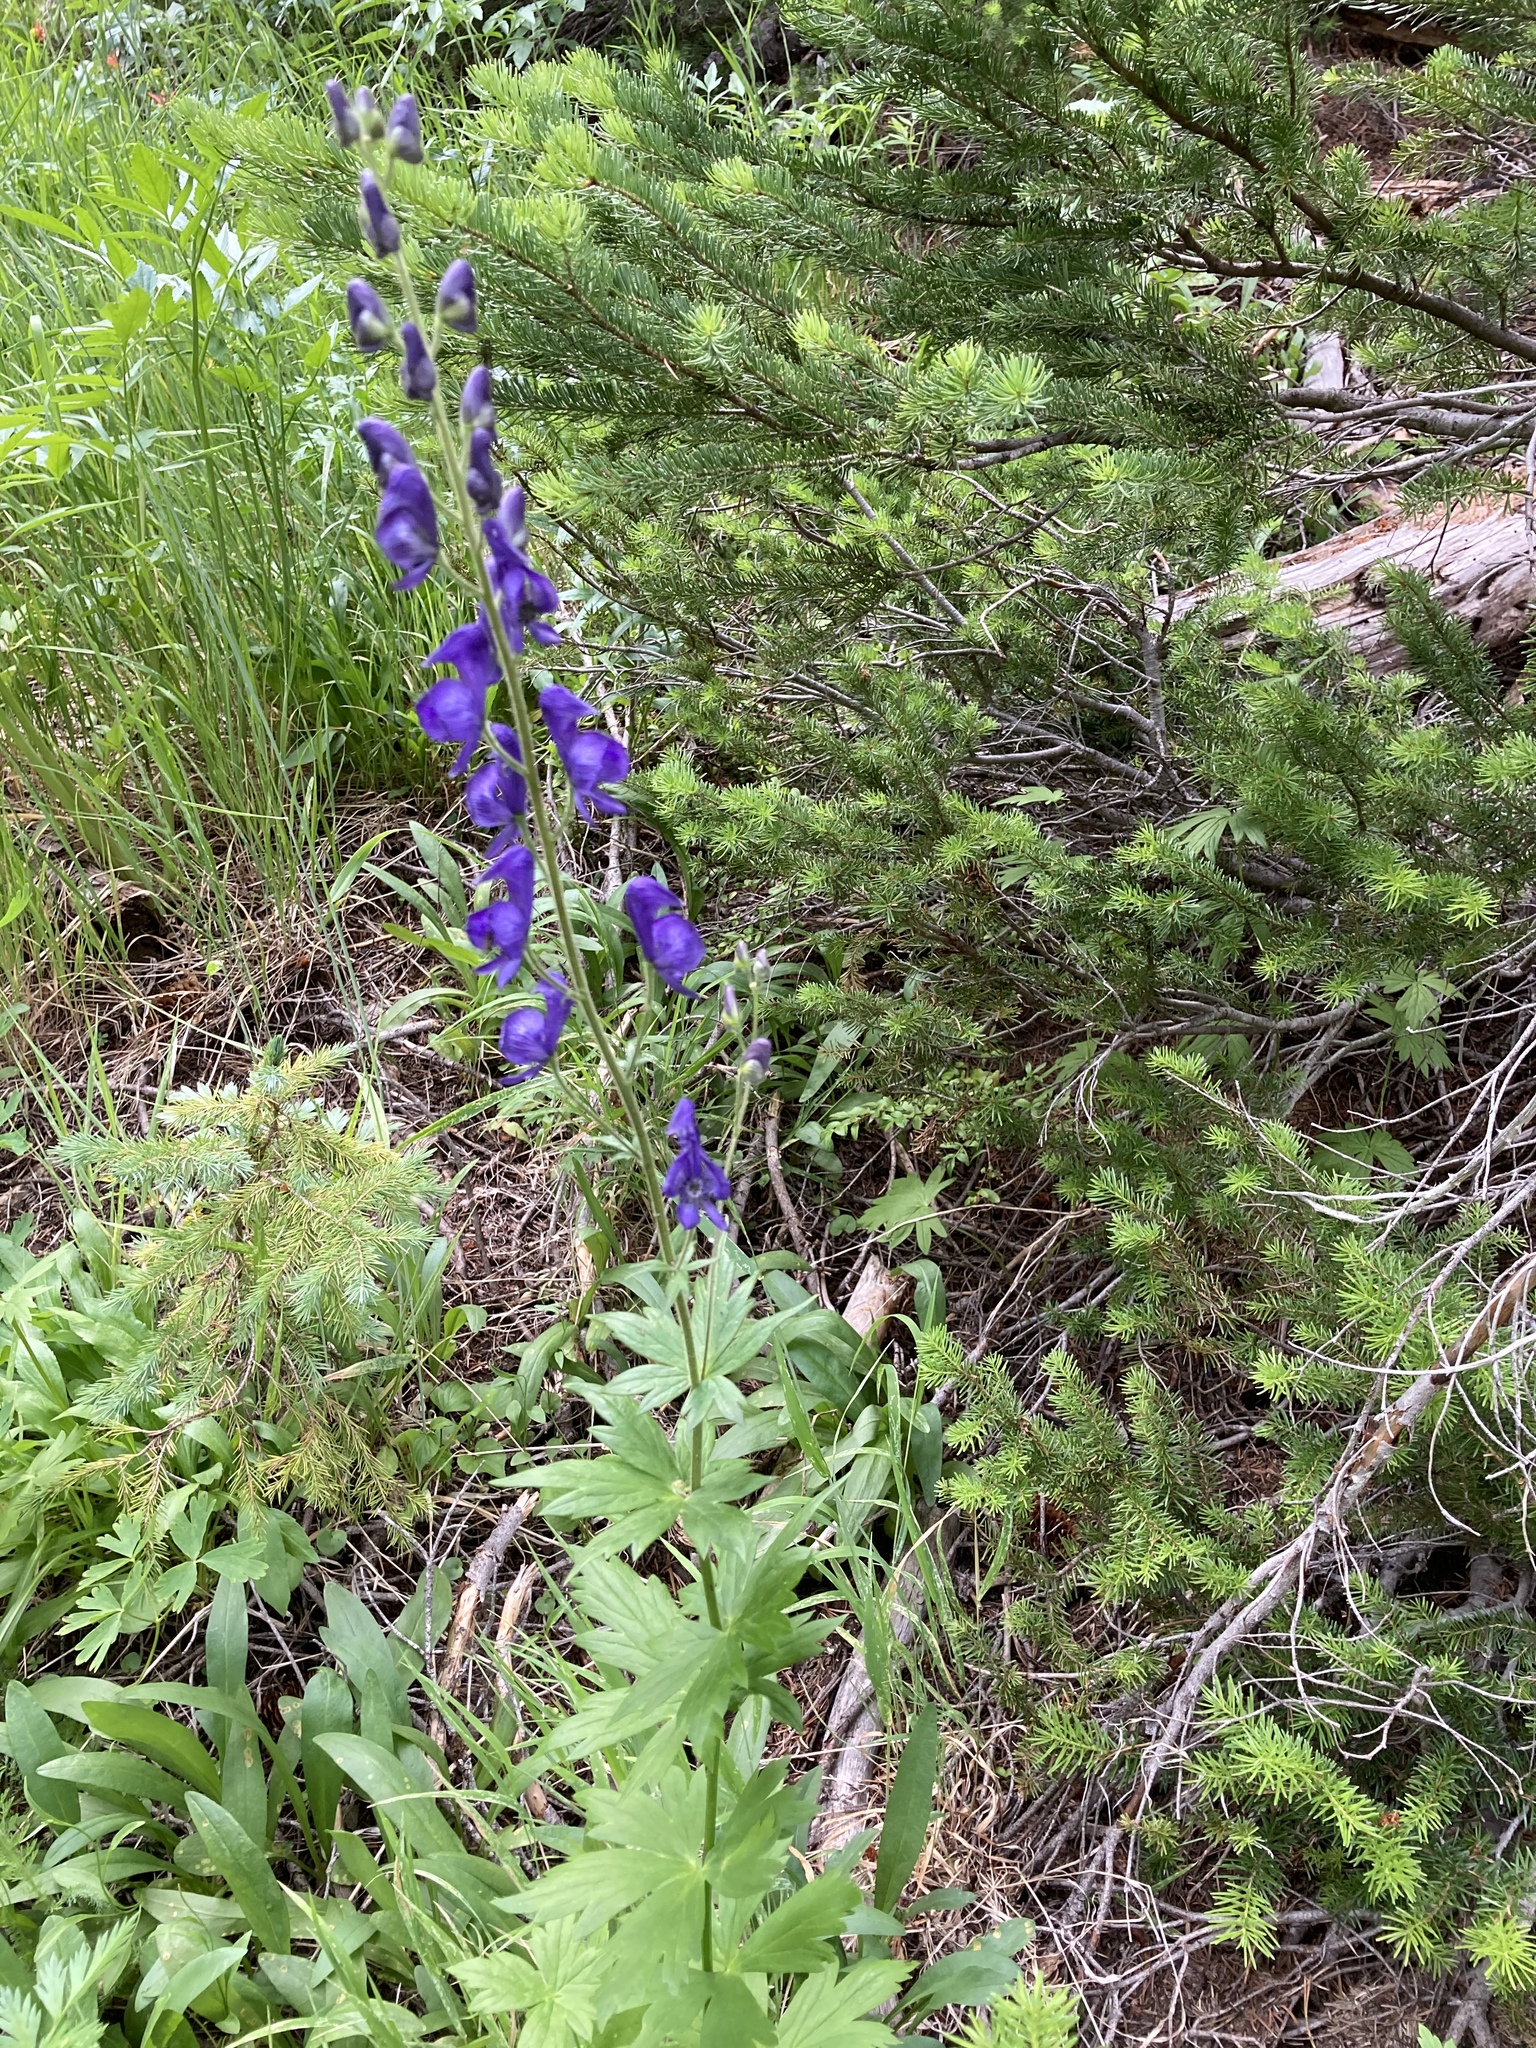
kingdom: Plantae
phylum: Tracheophyta
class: Magnoliopsida
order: Ranunculales
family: Ranunculaceae
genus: Aconitum
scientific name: Aconitum columbianum
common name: Columbia aconite
